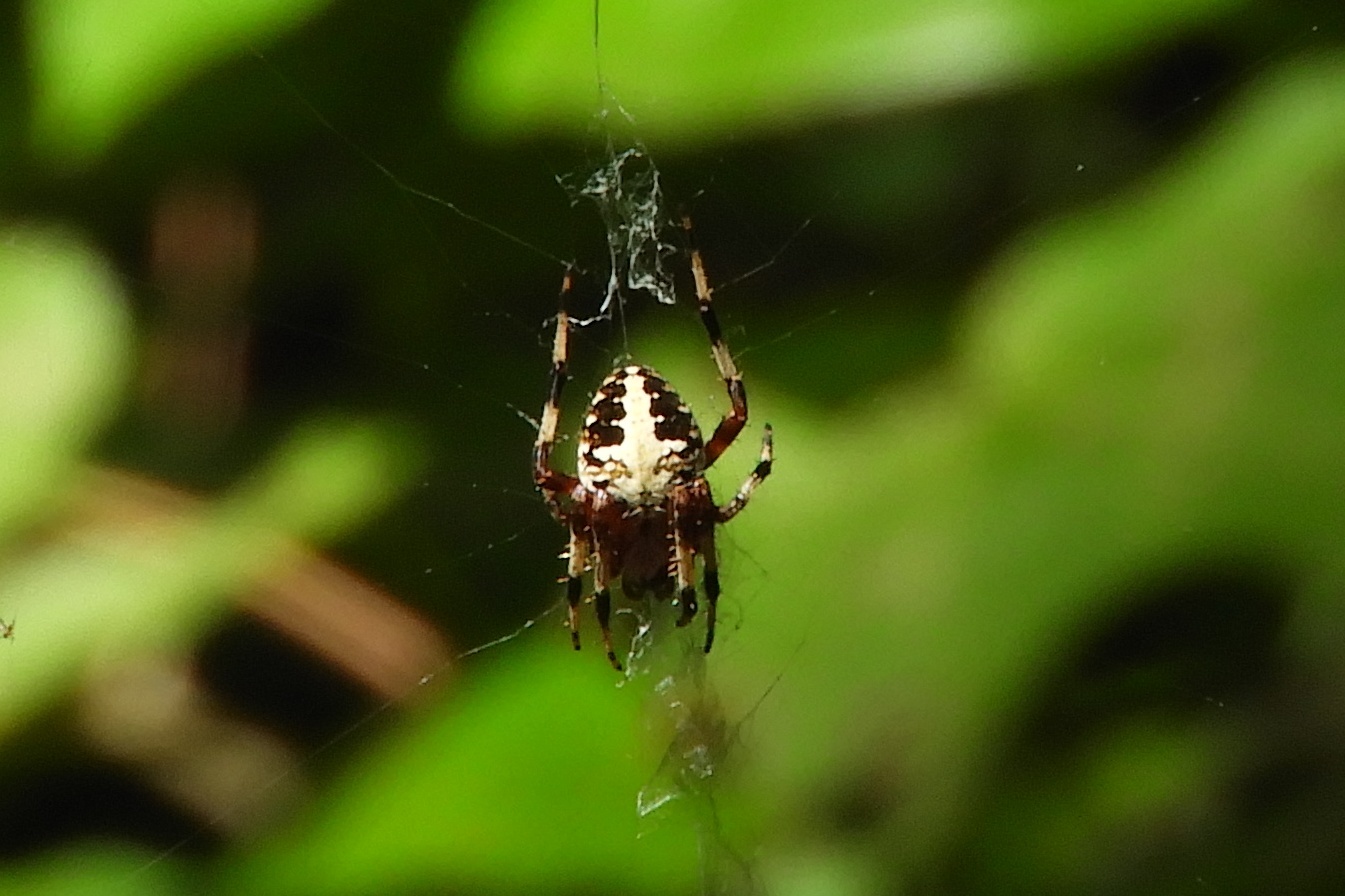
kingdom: Animalia
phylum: Arthropoda
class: Arachnida
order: Araneae
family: Araneidae
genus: Neoscona
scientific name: Neoscona domiciliorum
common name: Red-femured spotted orbweaver
